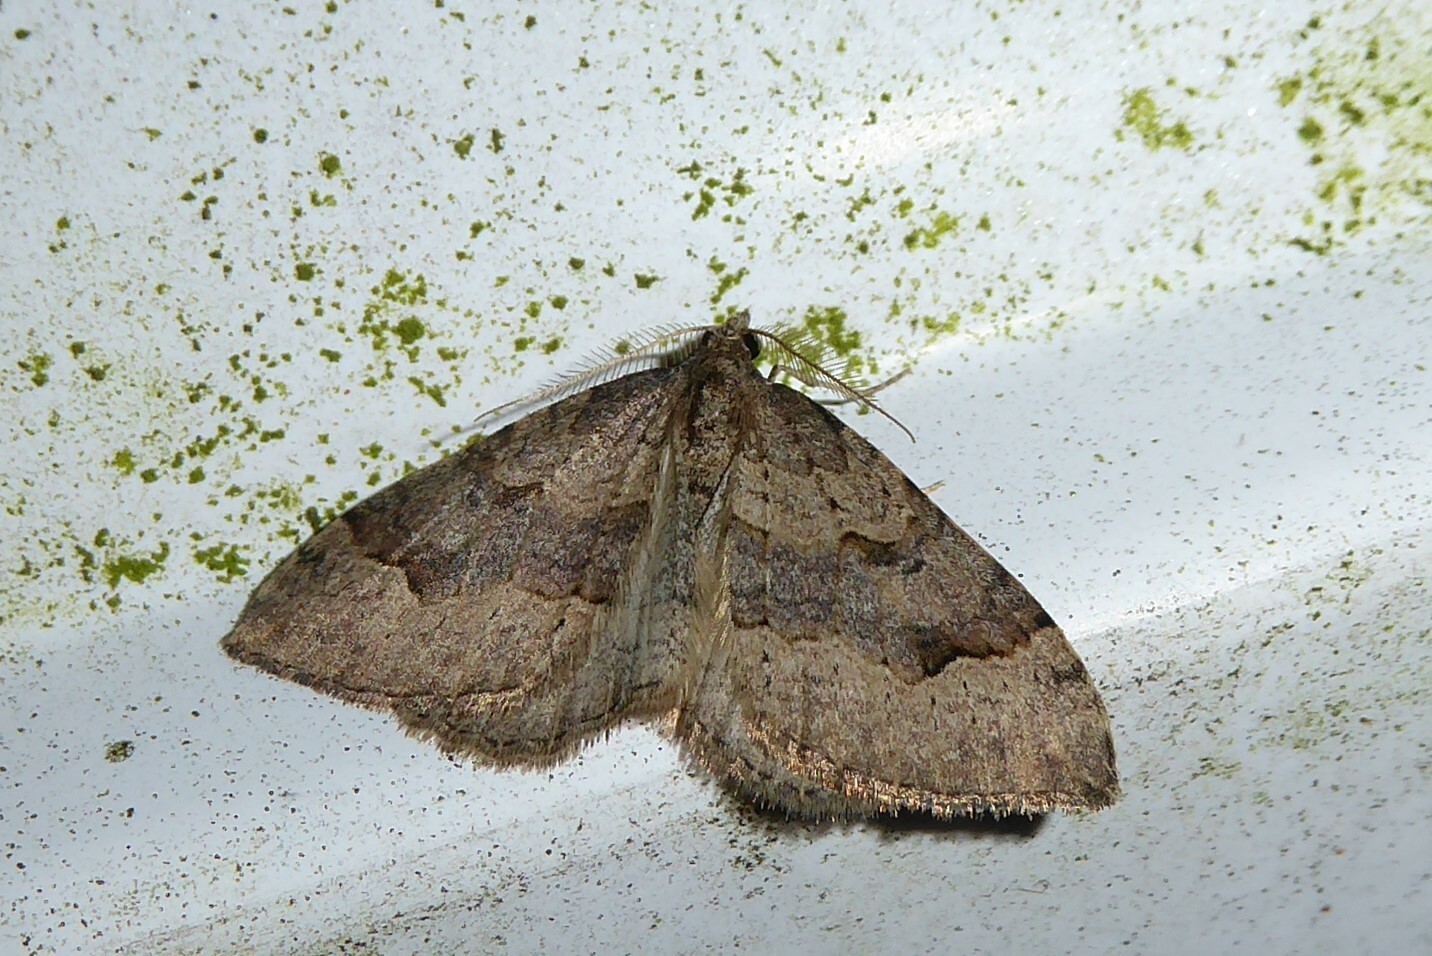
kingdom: Animalia
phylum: Arthropoda
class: Insecta
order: Lepidoptera
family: Geometridae
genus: Epyaxa
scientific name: Epyaxa rosearia
